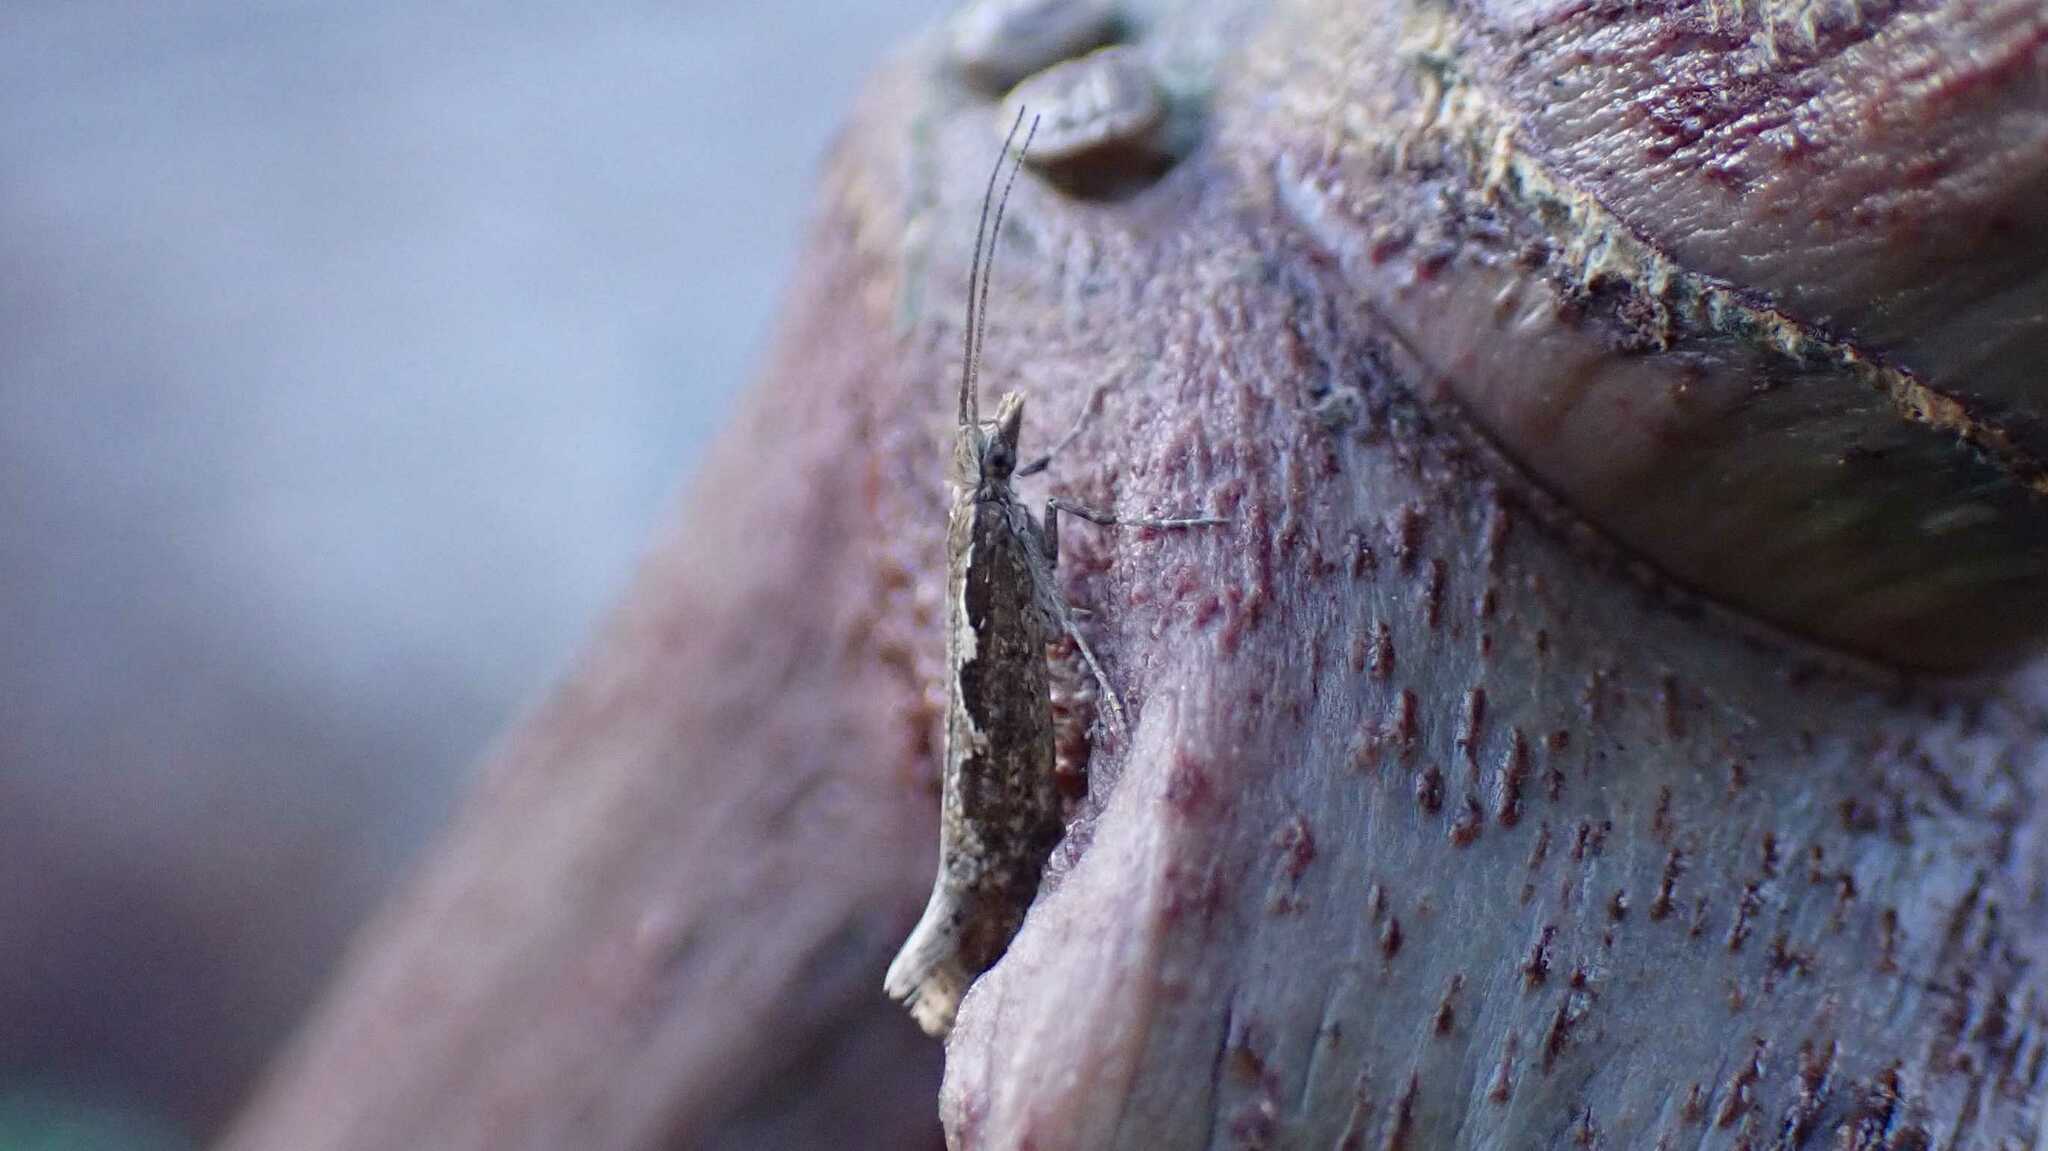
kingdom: Animalia
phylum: Arthropoda
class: Insecta
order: Lepidoptera
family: Plutellidae
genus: Plutella
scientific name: Plutella xylostella
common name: Diamond-back moth
